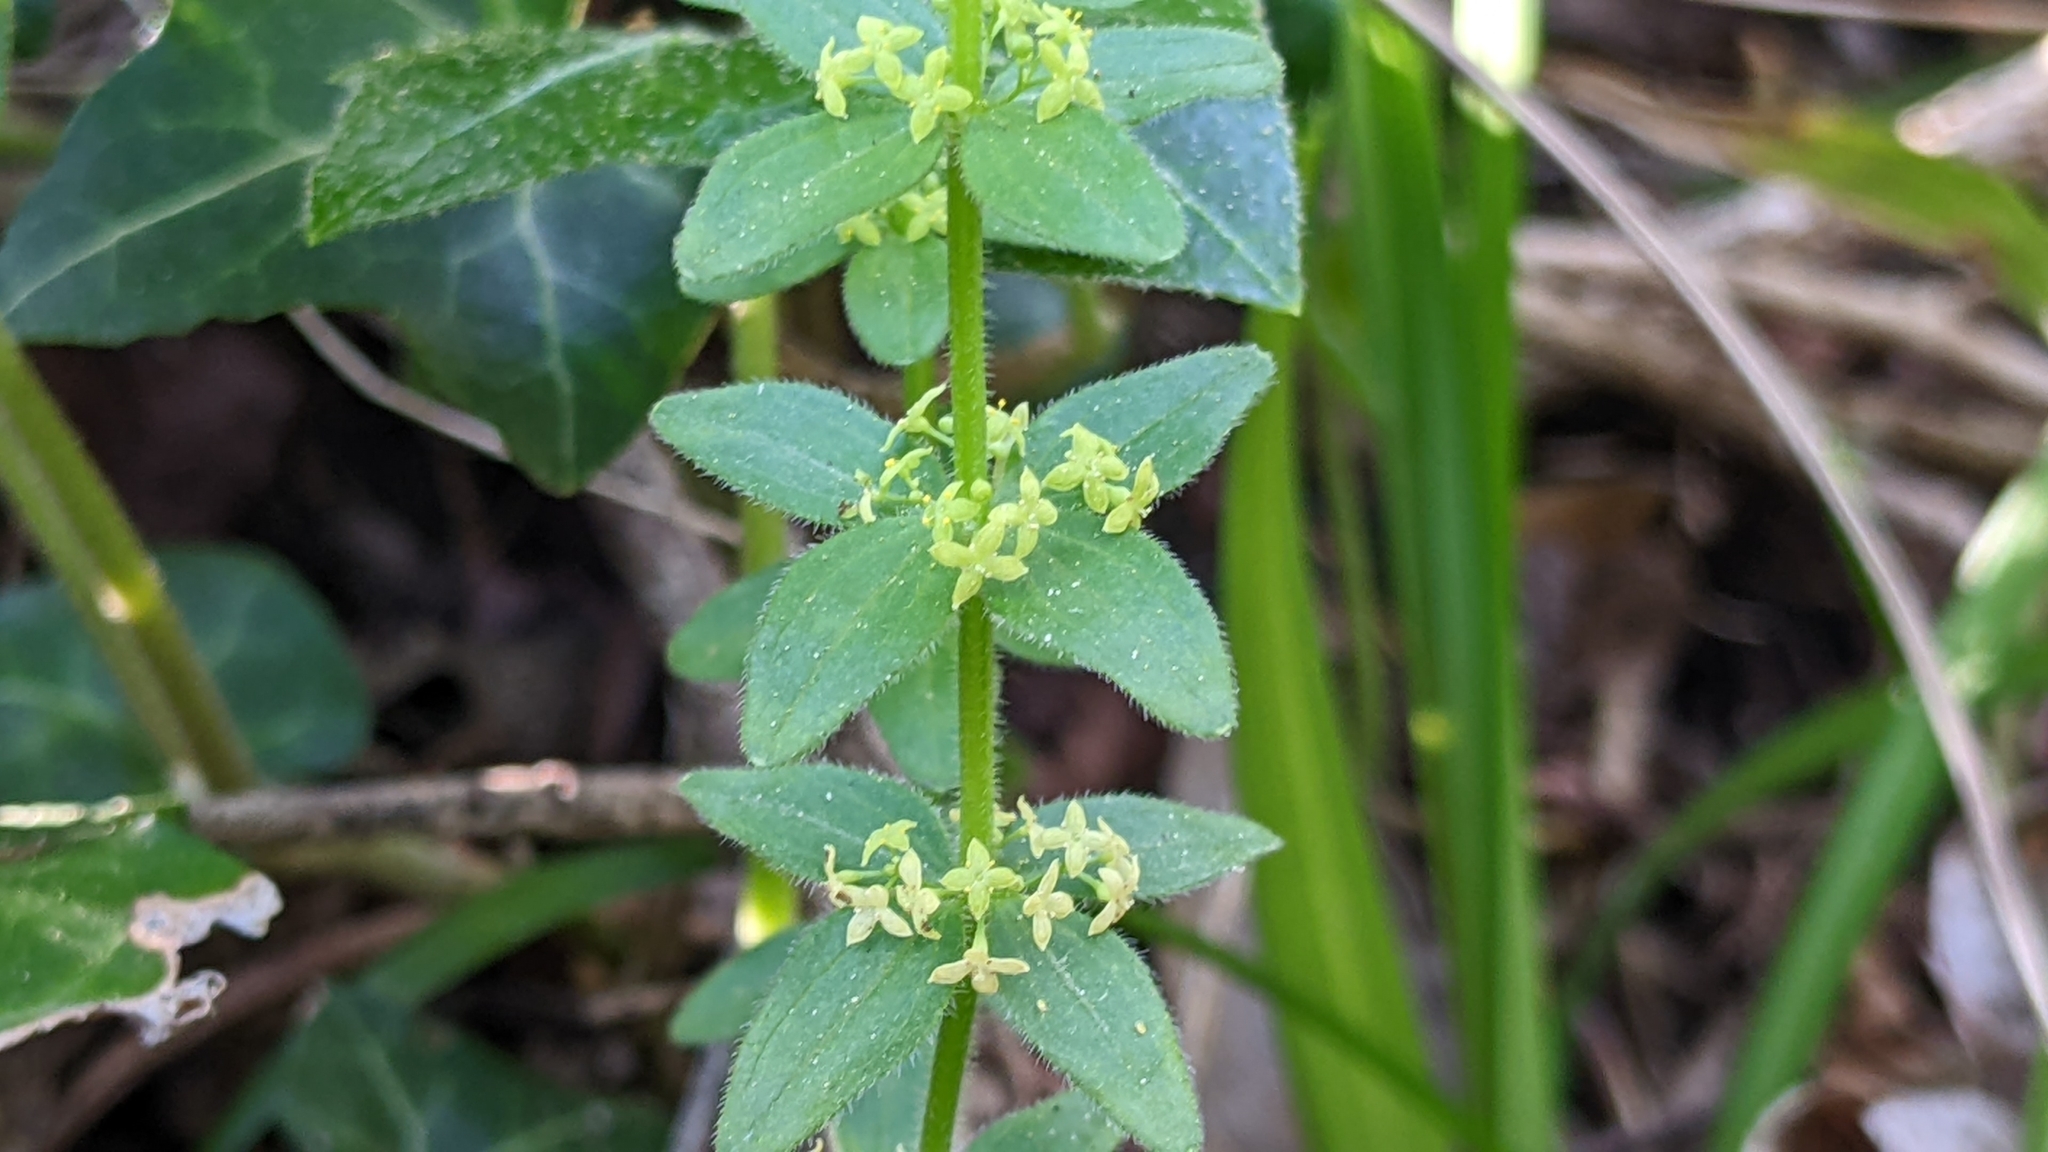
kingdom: Plantae
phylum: Tracheophyta
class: Magnoliopsida
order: Gentianales
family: Rubiaceae
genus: Cruciata
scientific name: Cruciata glabra
